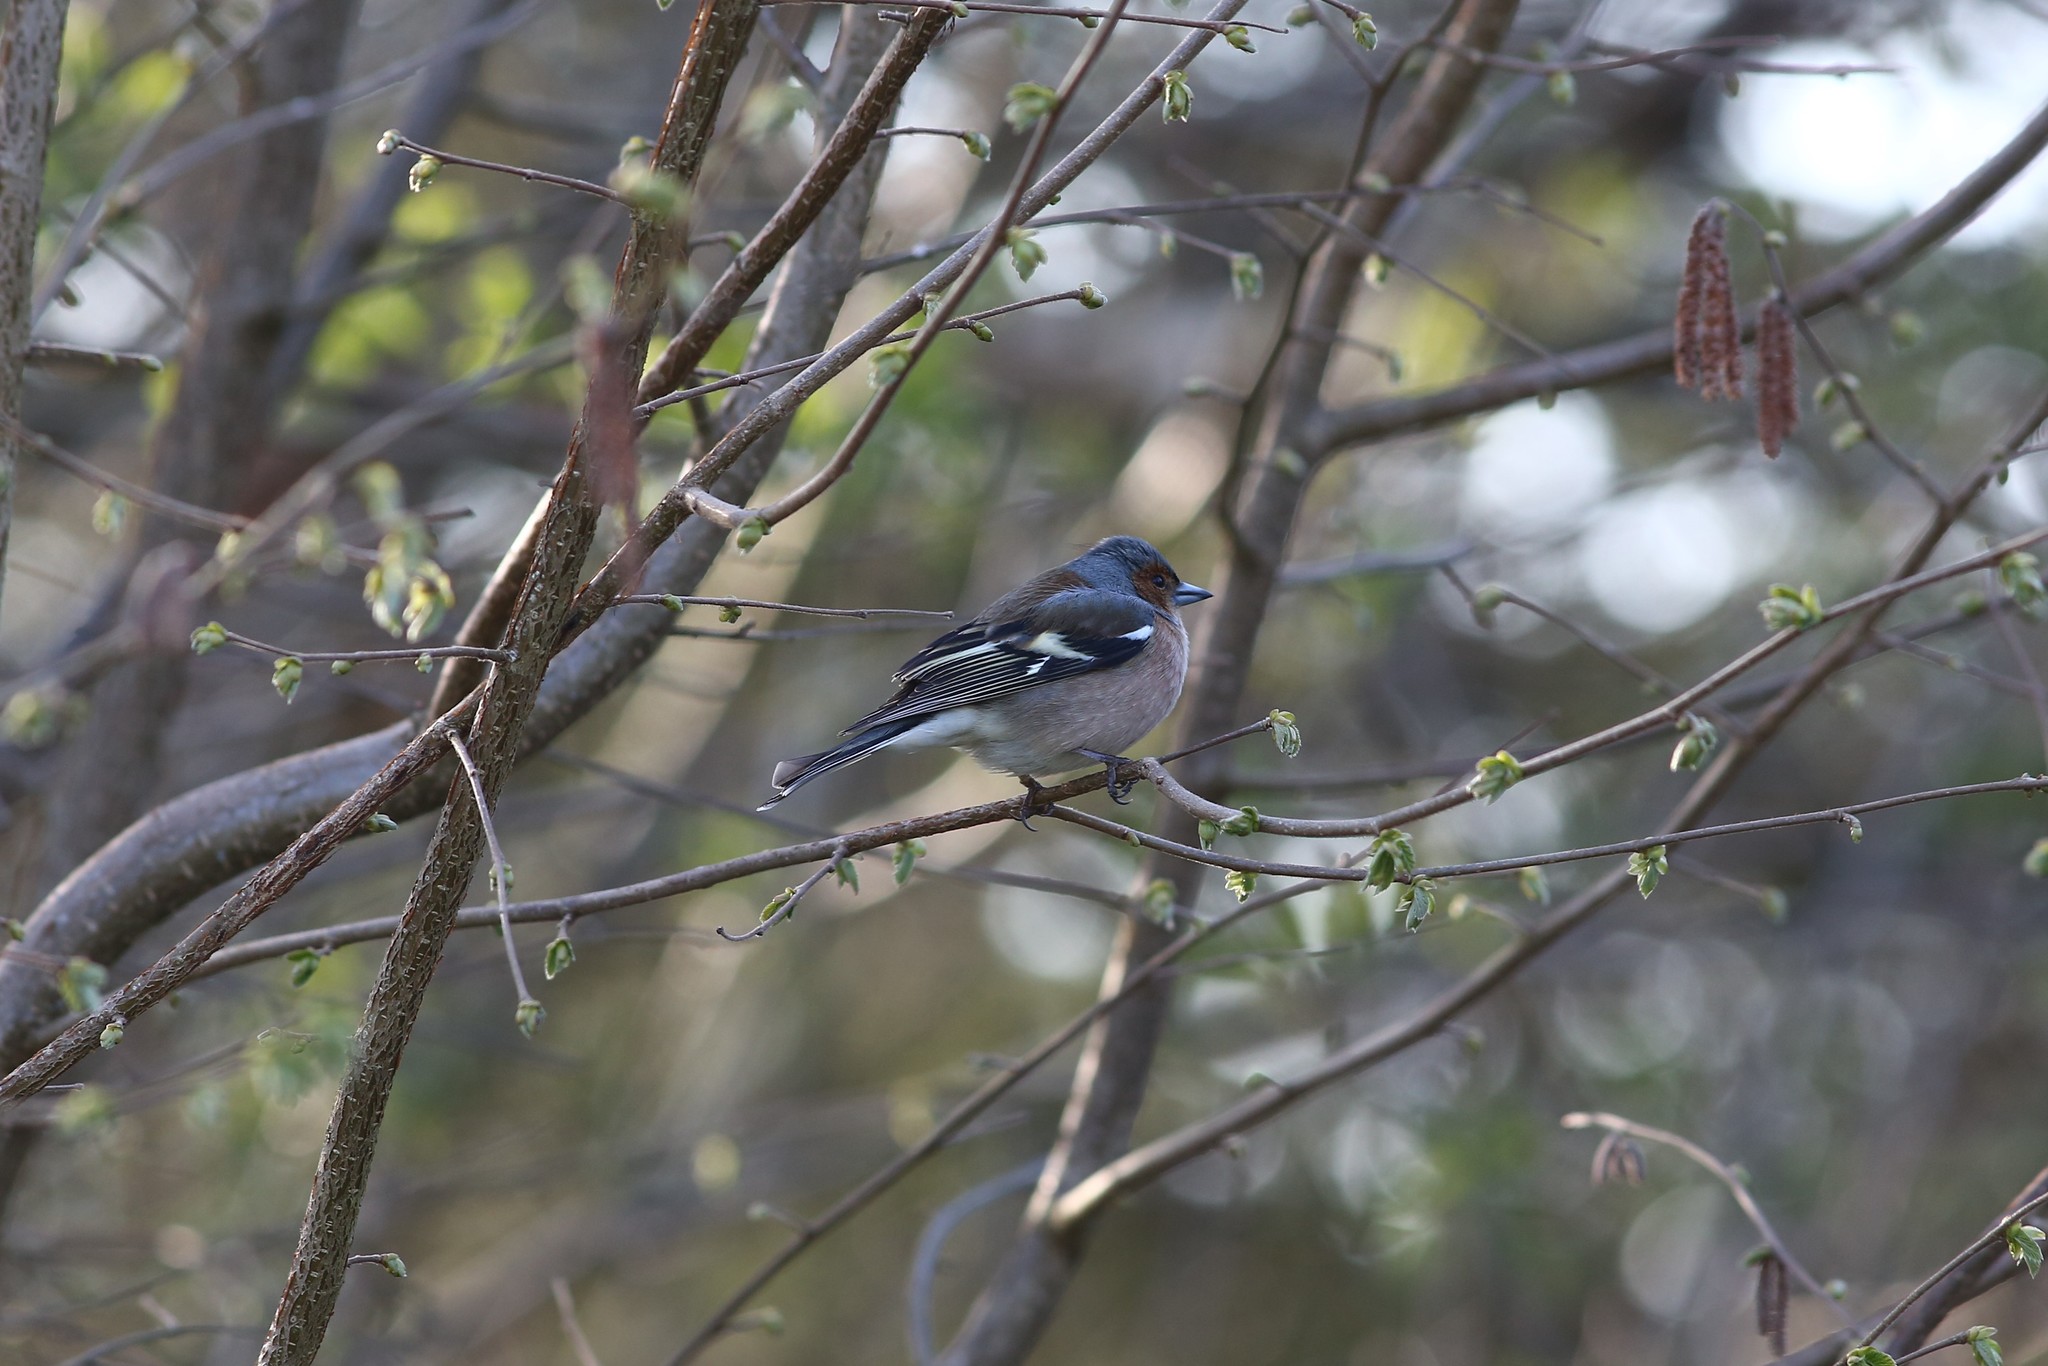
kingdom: Animalia
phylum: Chordata
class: Aves
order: Passeriformes
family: Fringillidae
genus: Fringilla
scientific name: Fringilla coelebs
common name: Common chaffinch
